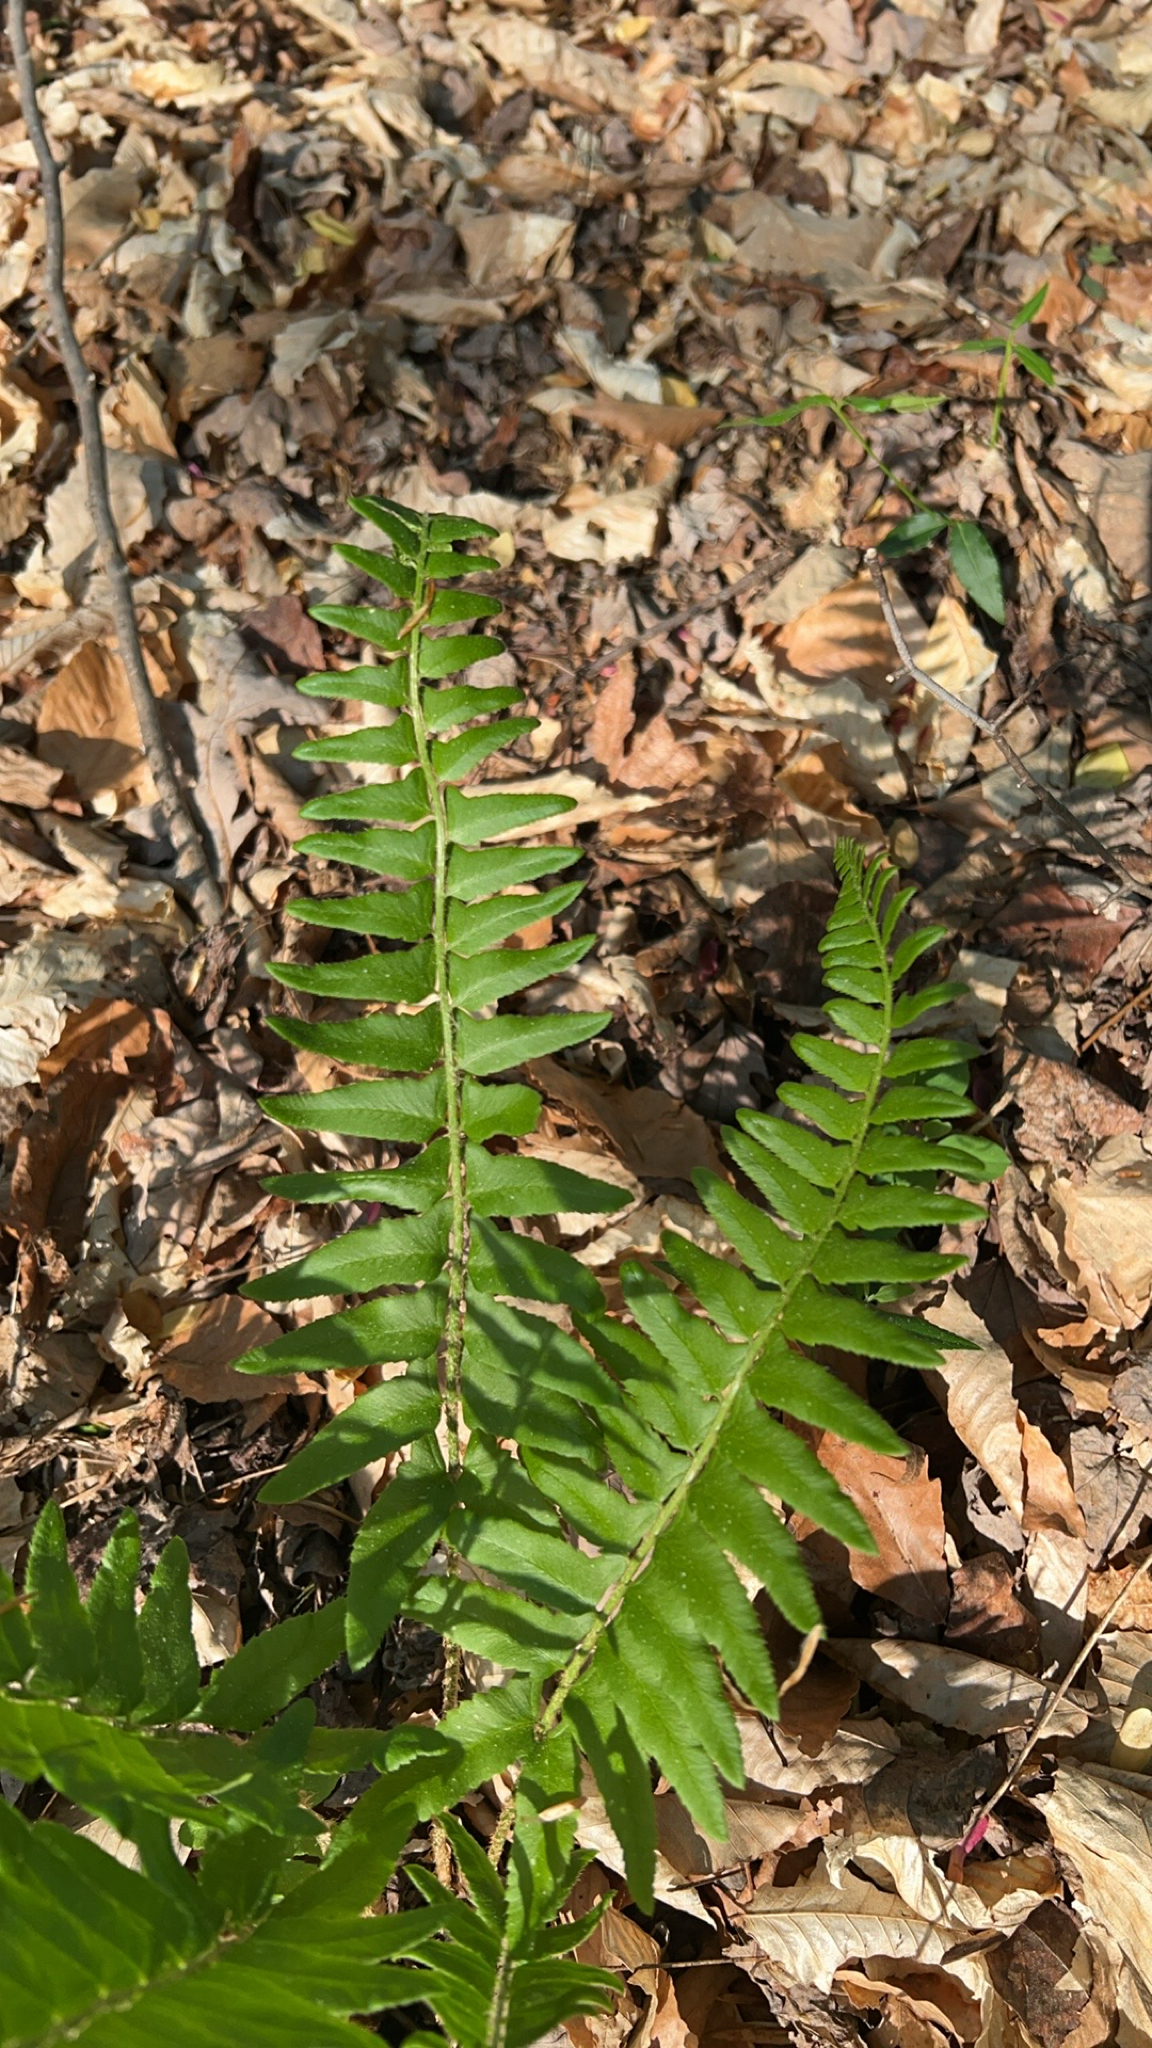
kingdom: Plantae
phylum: Tracheophyta
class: Polypodiopsida
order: Polypodiales
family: Dryopteridaceae
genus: Polystichum
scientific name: Polystichum acrostichoides
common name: Christmas fern
